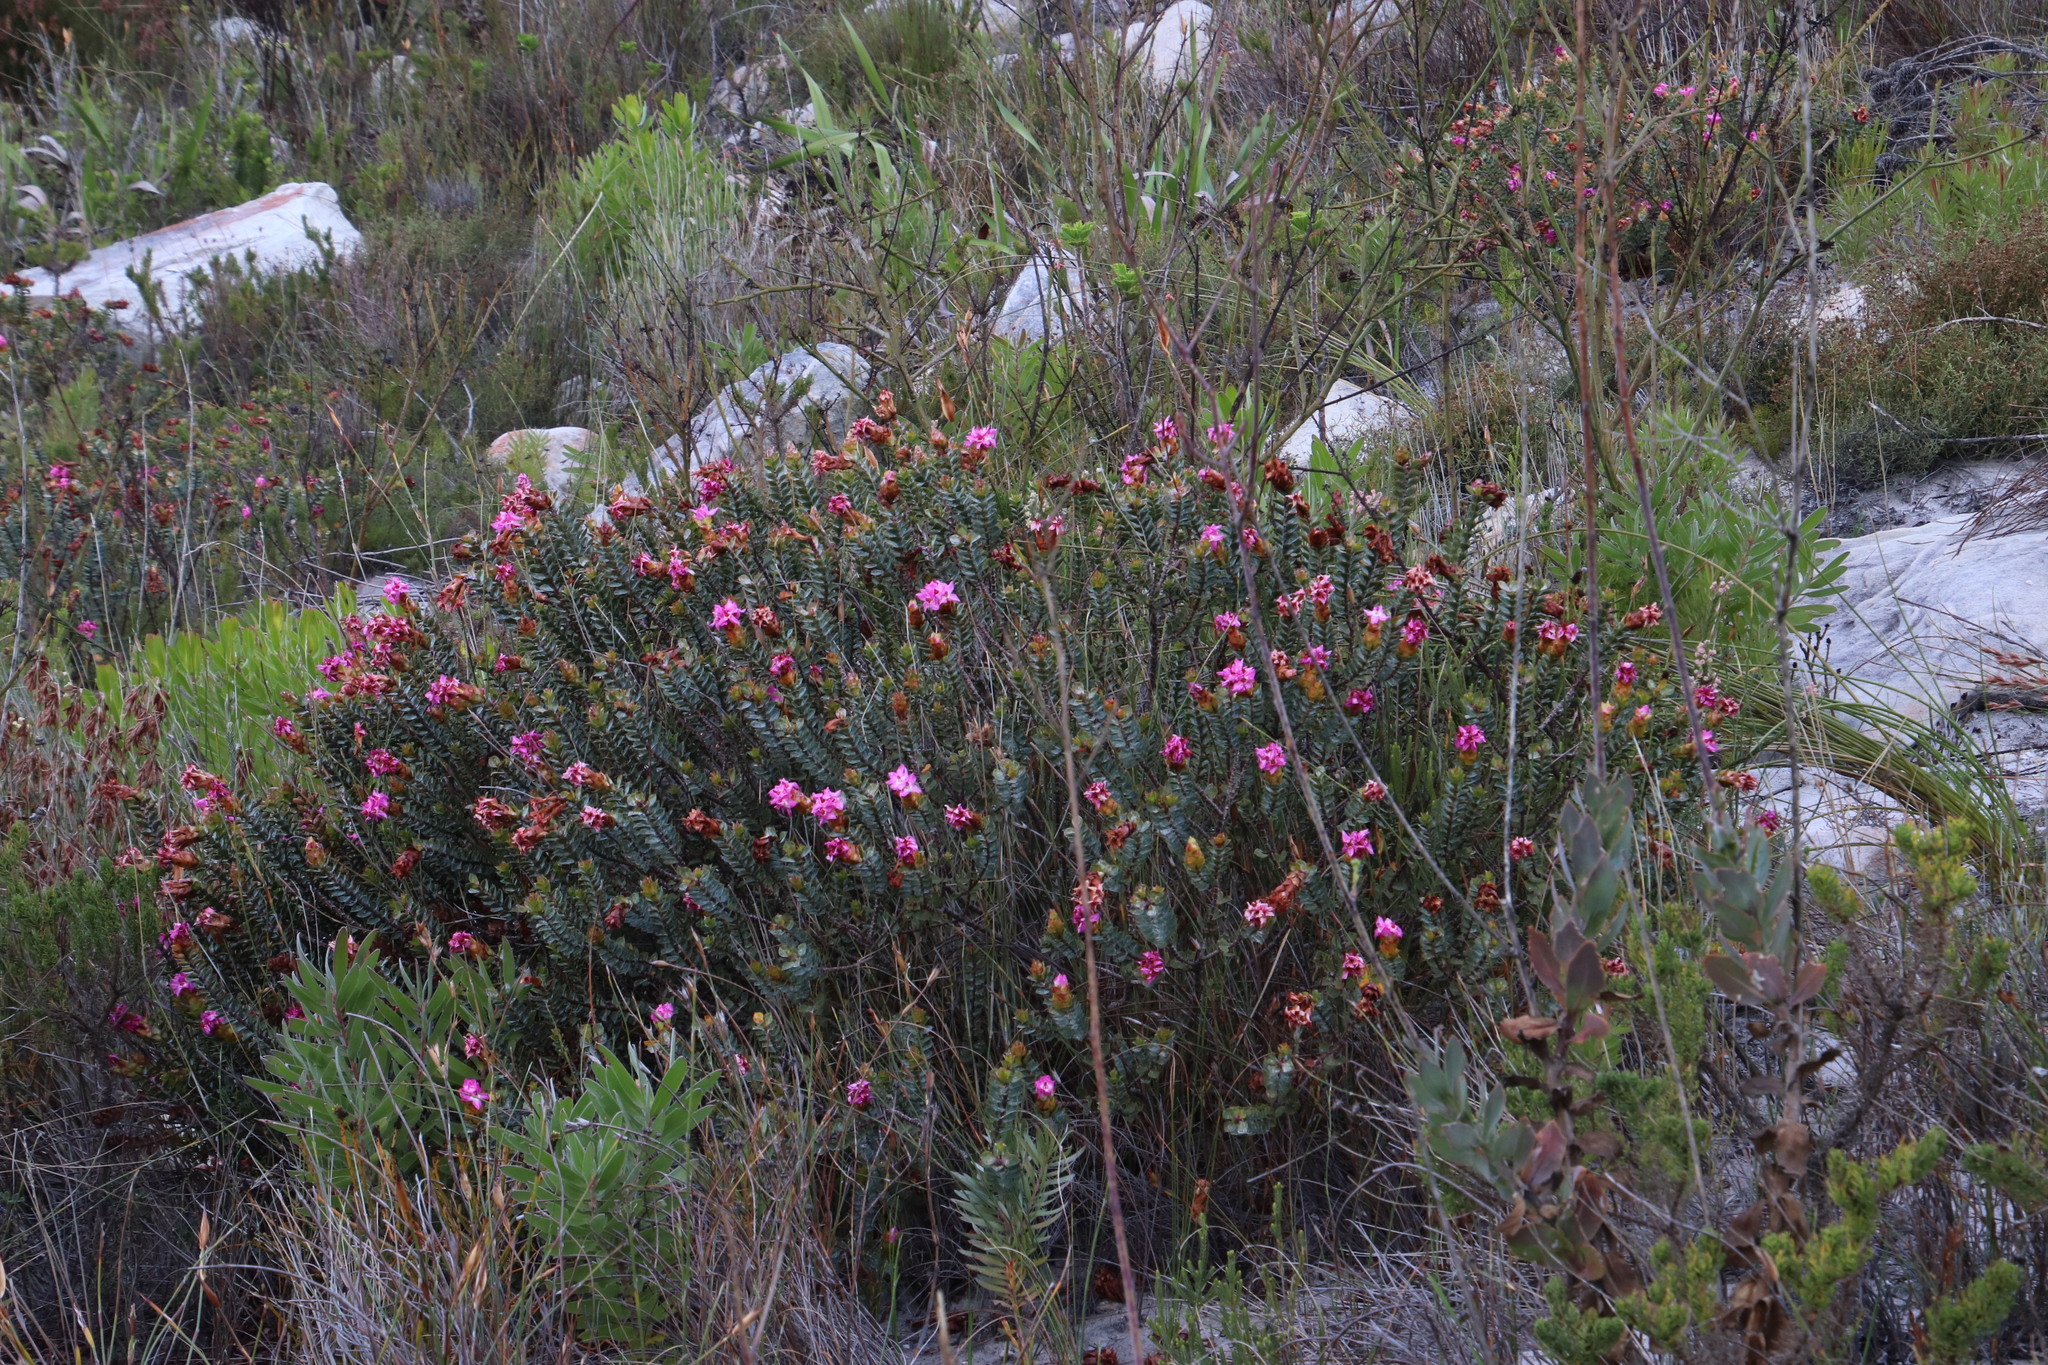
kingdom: Plantae
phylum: Tracheophyta
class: Magnoliopsida
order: Myrtales
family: Penaeaceae
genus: Saltera
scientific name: Saltera sarcocolla
